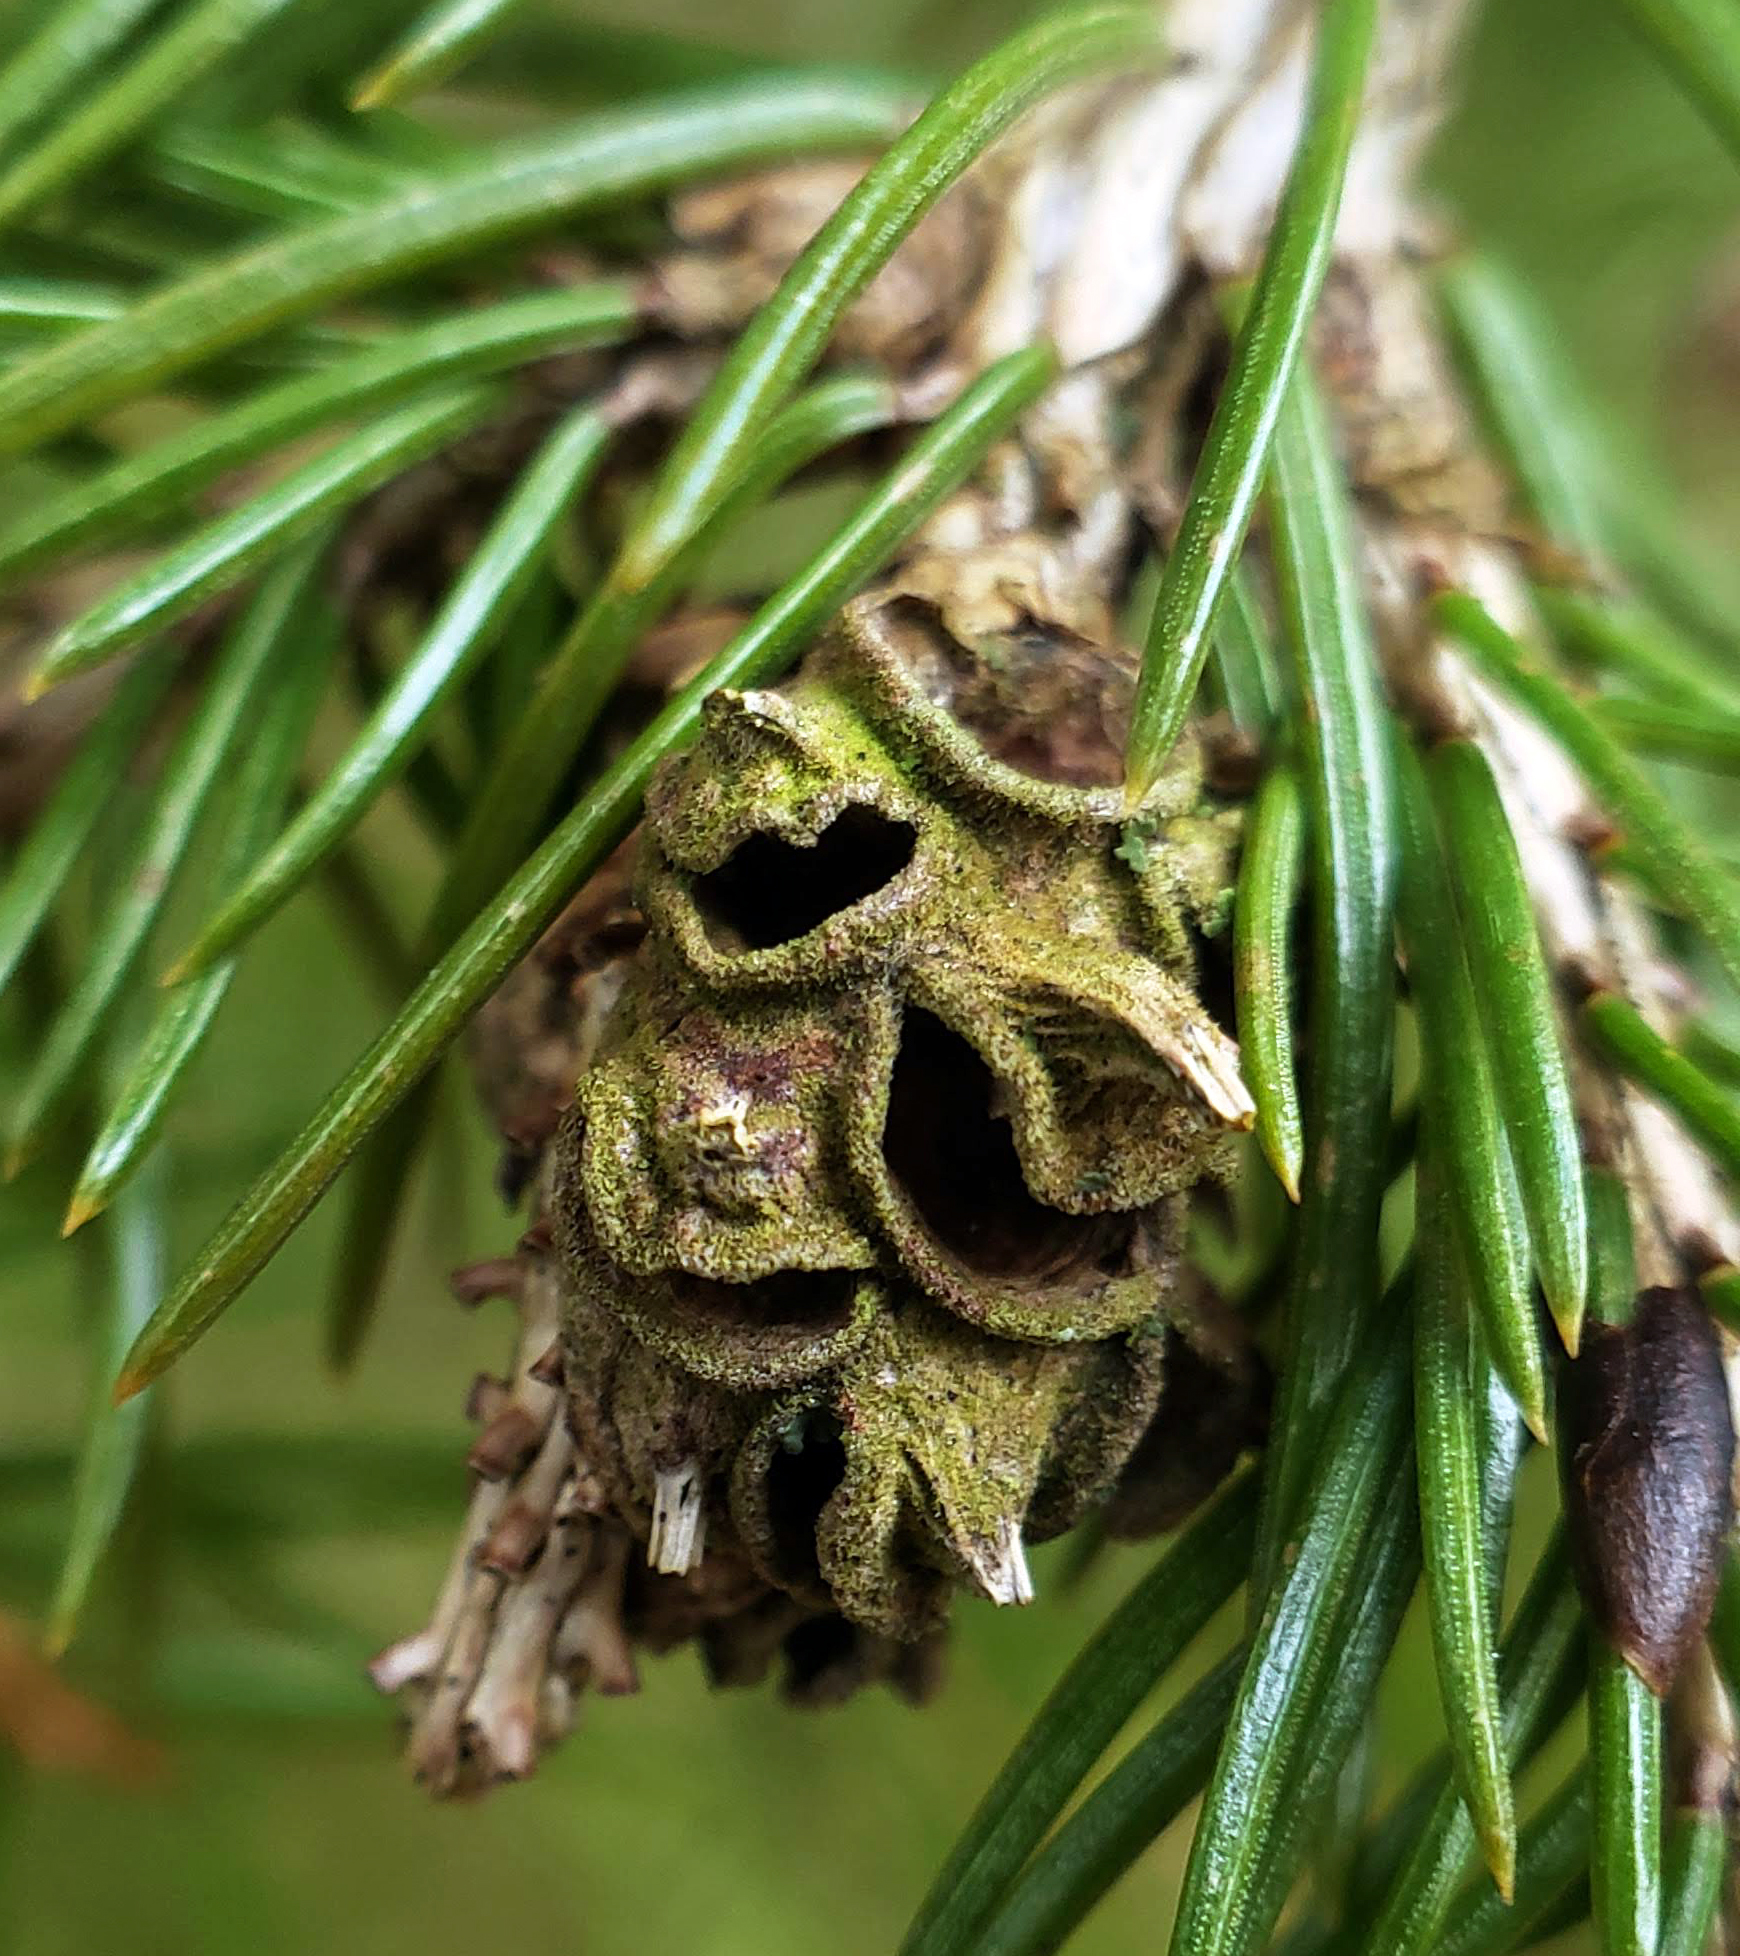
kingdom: Animalia
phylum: Arthropoda
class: Insecta
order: Hemiptera
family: Adelgidae
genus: Adelges
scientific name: Adelges abietis
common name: Eastern spruce gall adelgid
